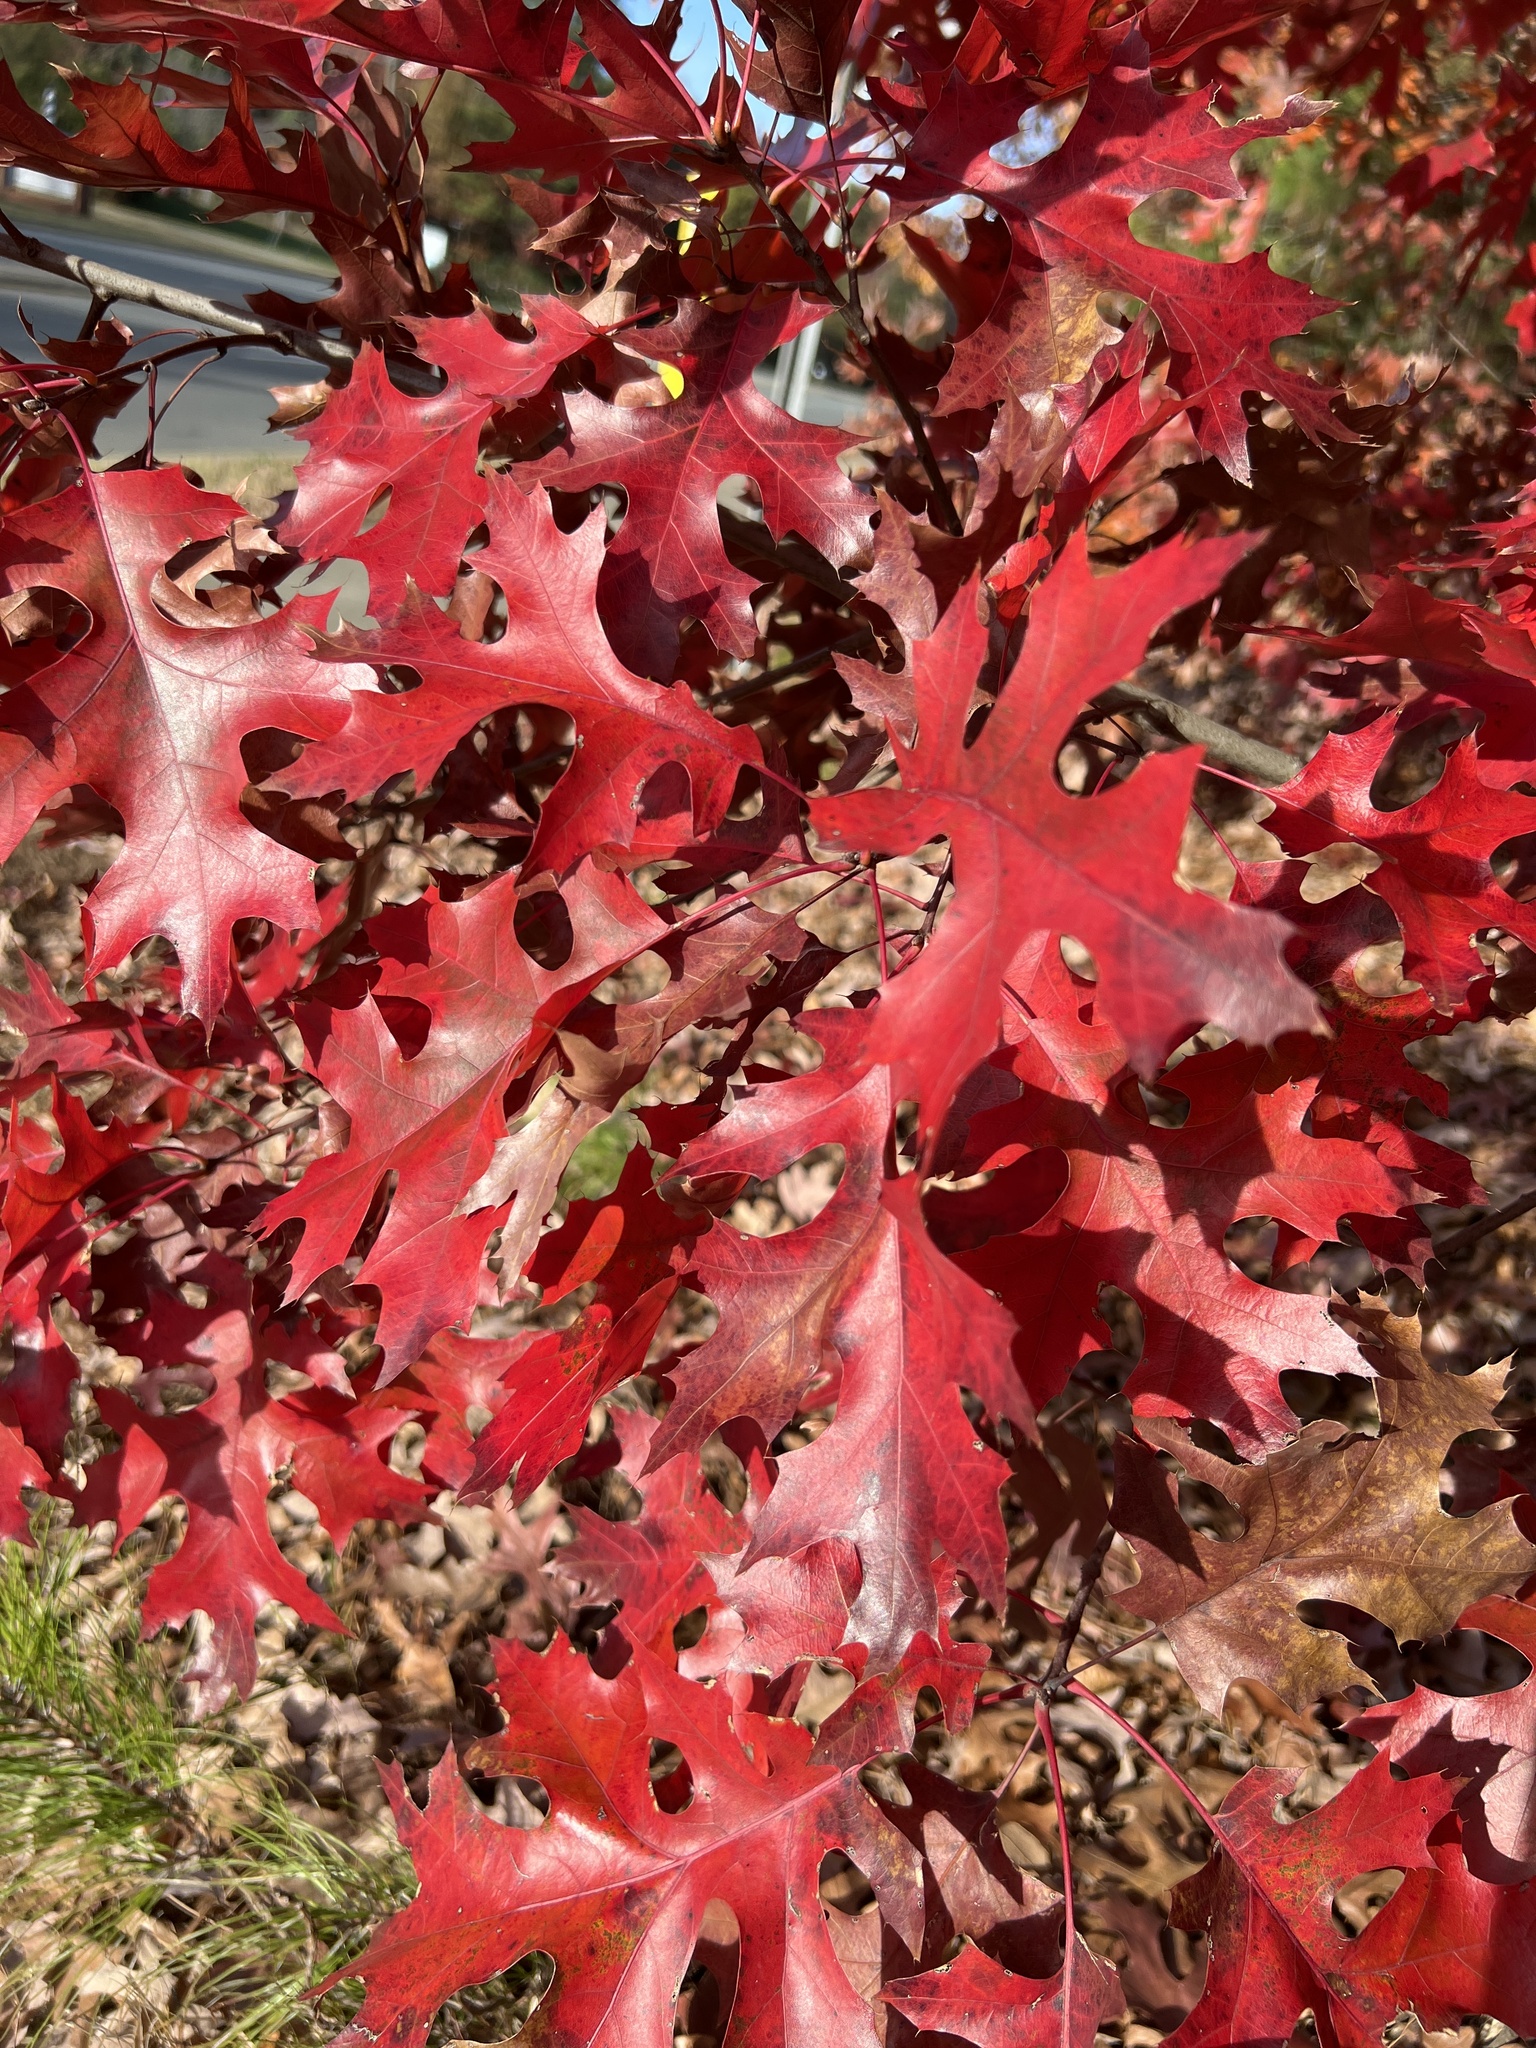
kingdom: Plantae
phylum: Tracheophyta
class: Magnoliopsida
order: Fagales
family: Fagaceae
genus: Quercus
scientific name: Quercus coccinea
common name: Scarlet oak
